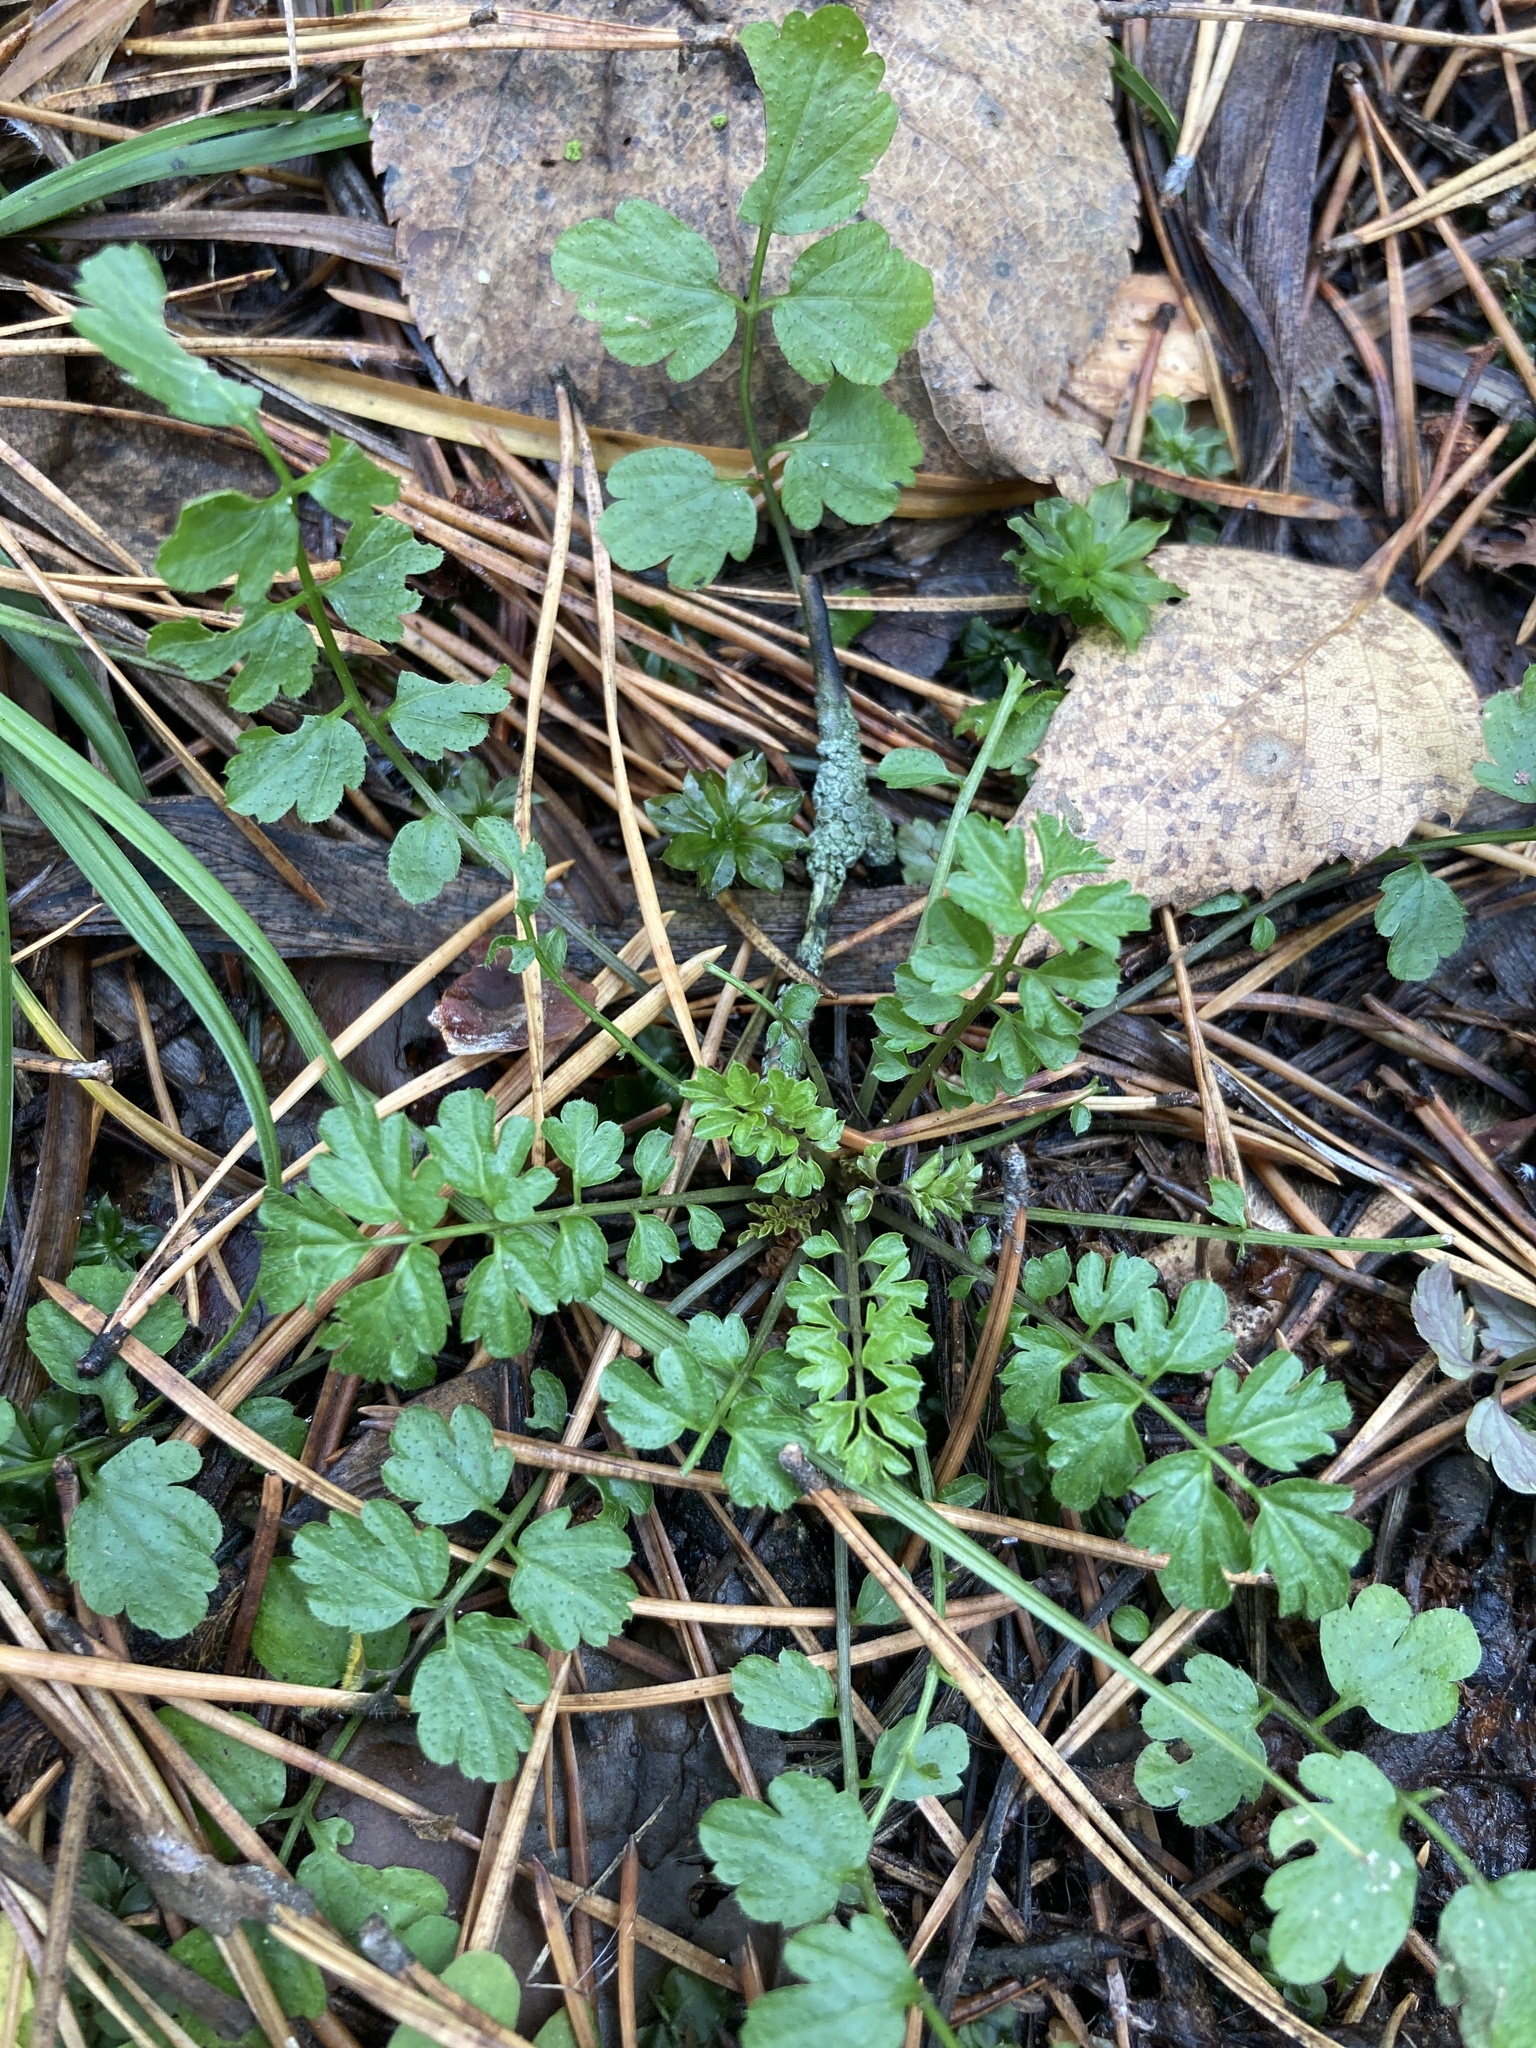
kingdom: Plantae
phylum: Tracheophyta
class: Magnoliopsida
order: Brassicales
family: Brassicaceae
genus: Cardamine
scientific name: Cardamine impatiens
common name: Narrow-leaved bitter-cress
